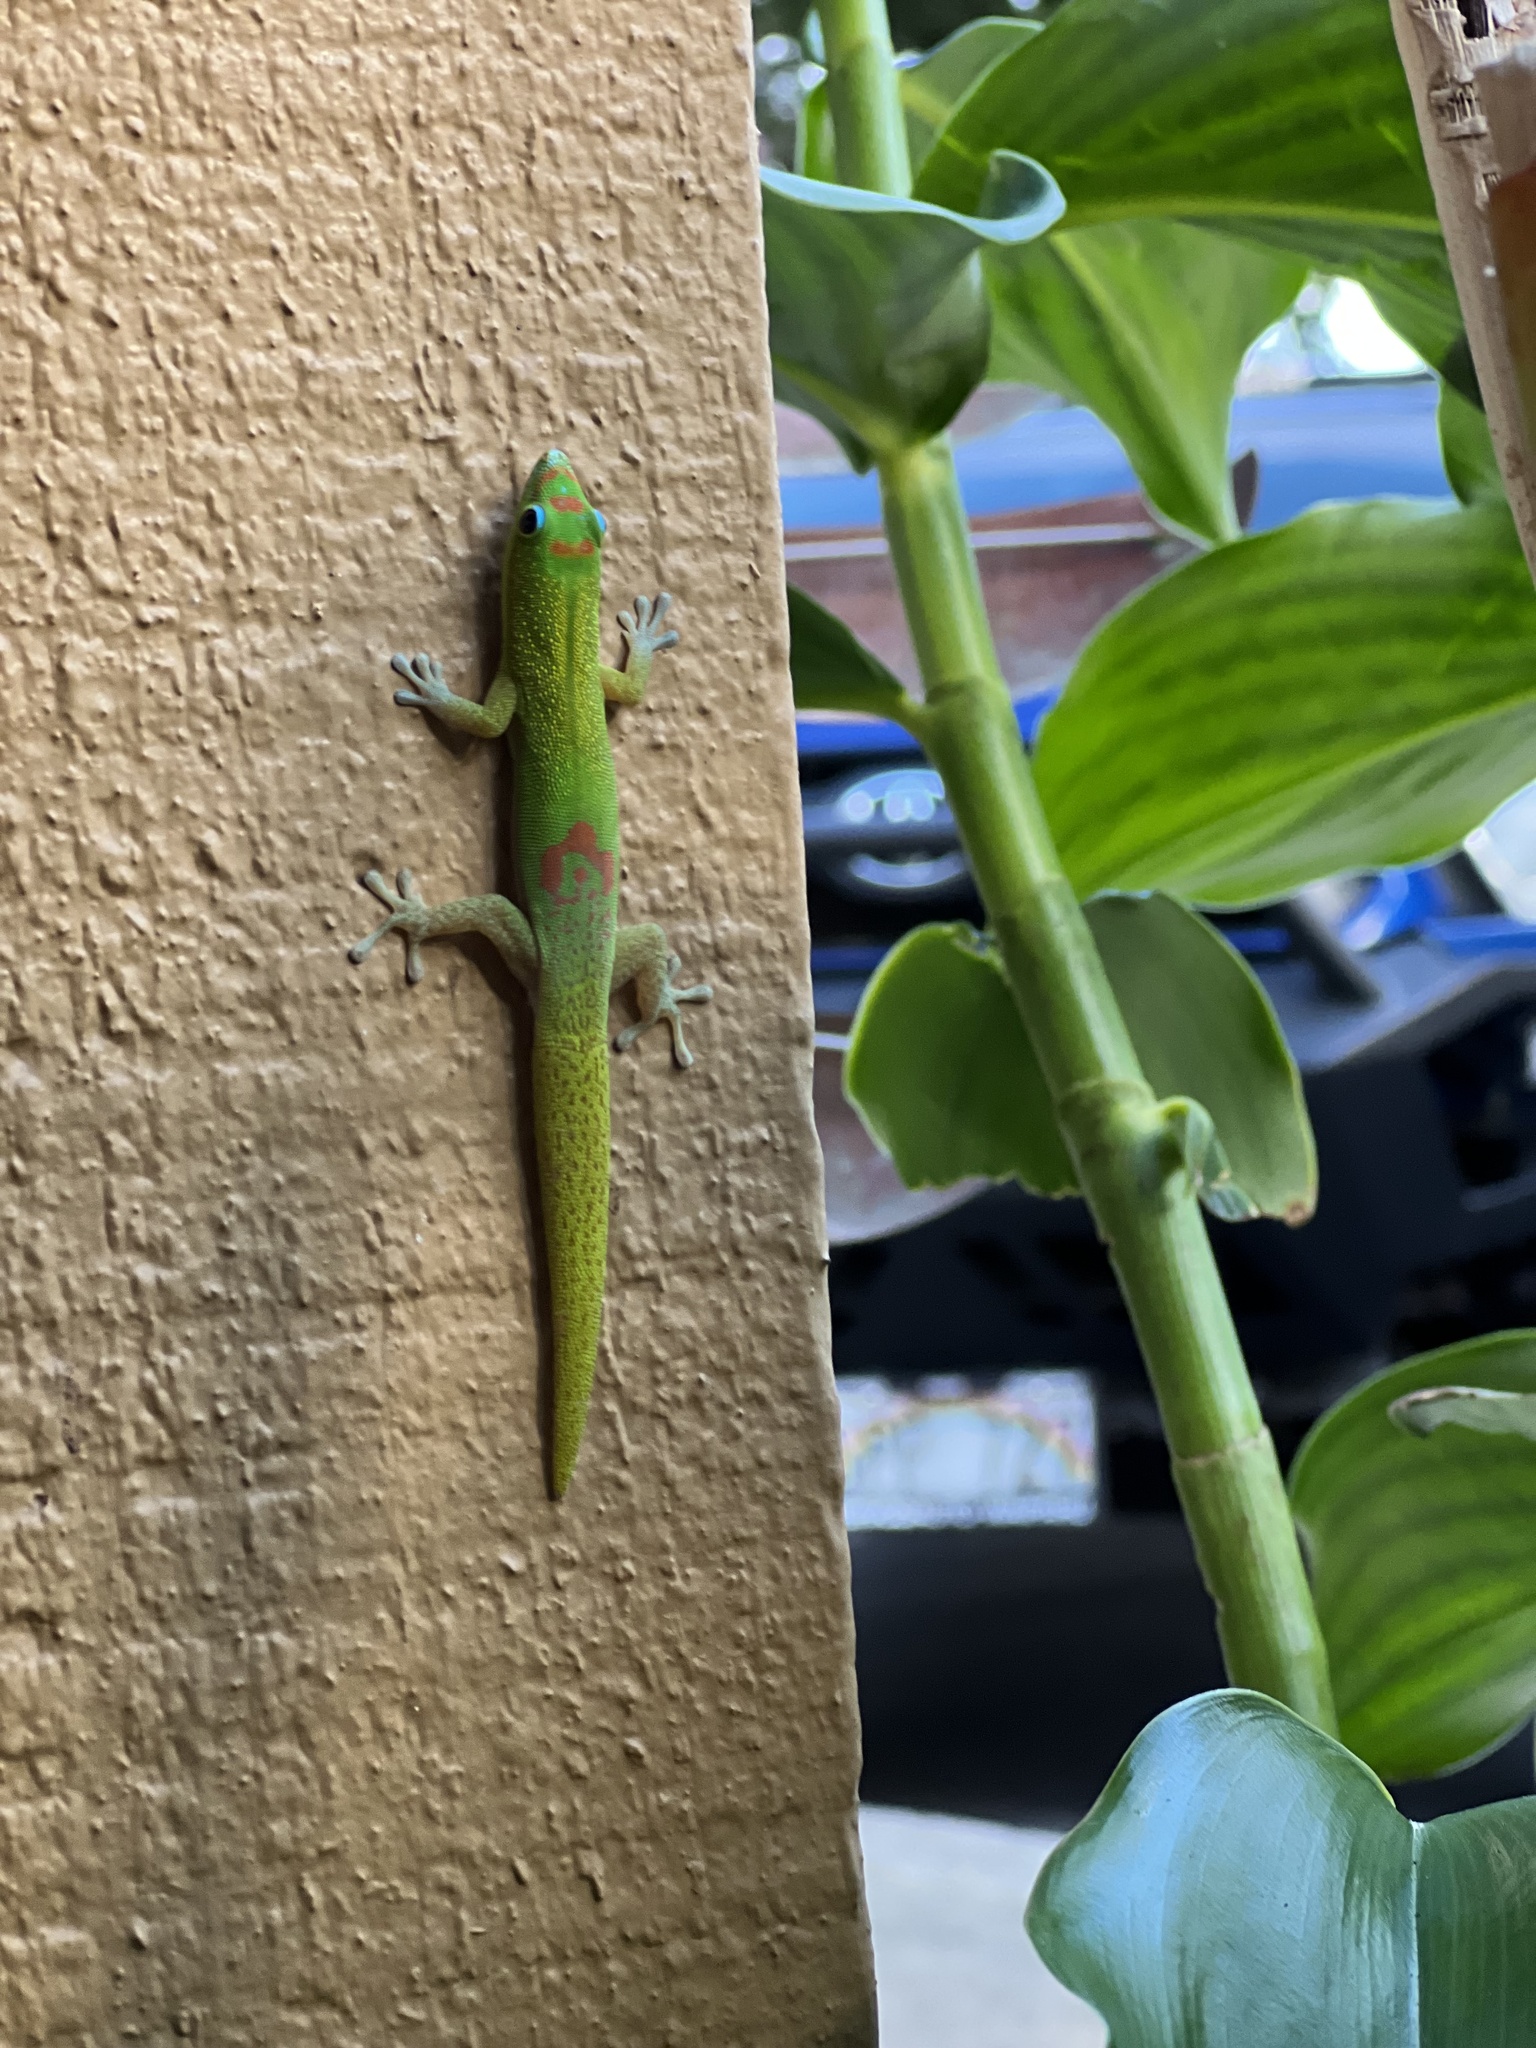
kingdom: Animalia
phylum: Chordata
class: Squamata
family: Gekkonidae
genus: Phelsuma
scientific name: Phelsuma laticauda
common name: Gold dust day gecko
